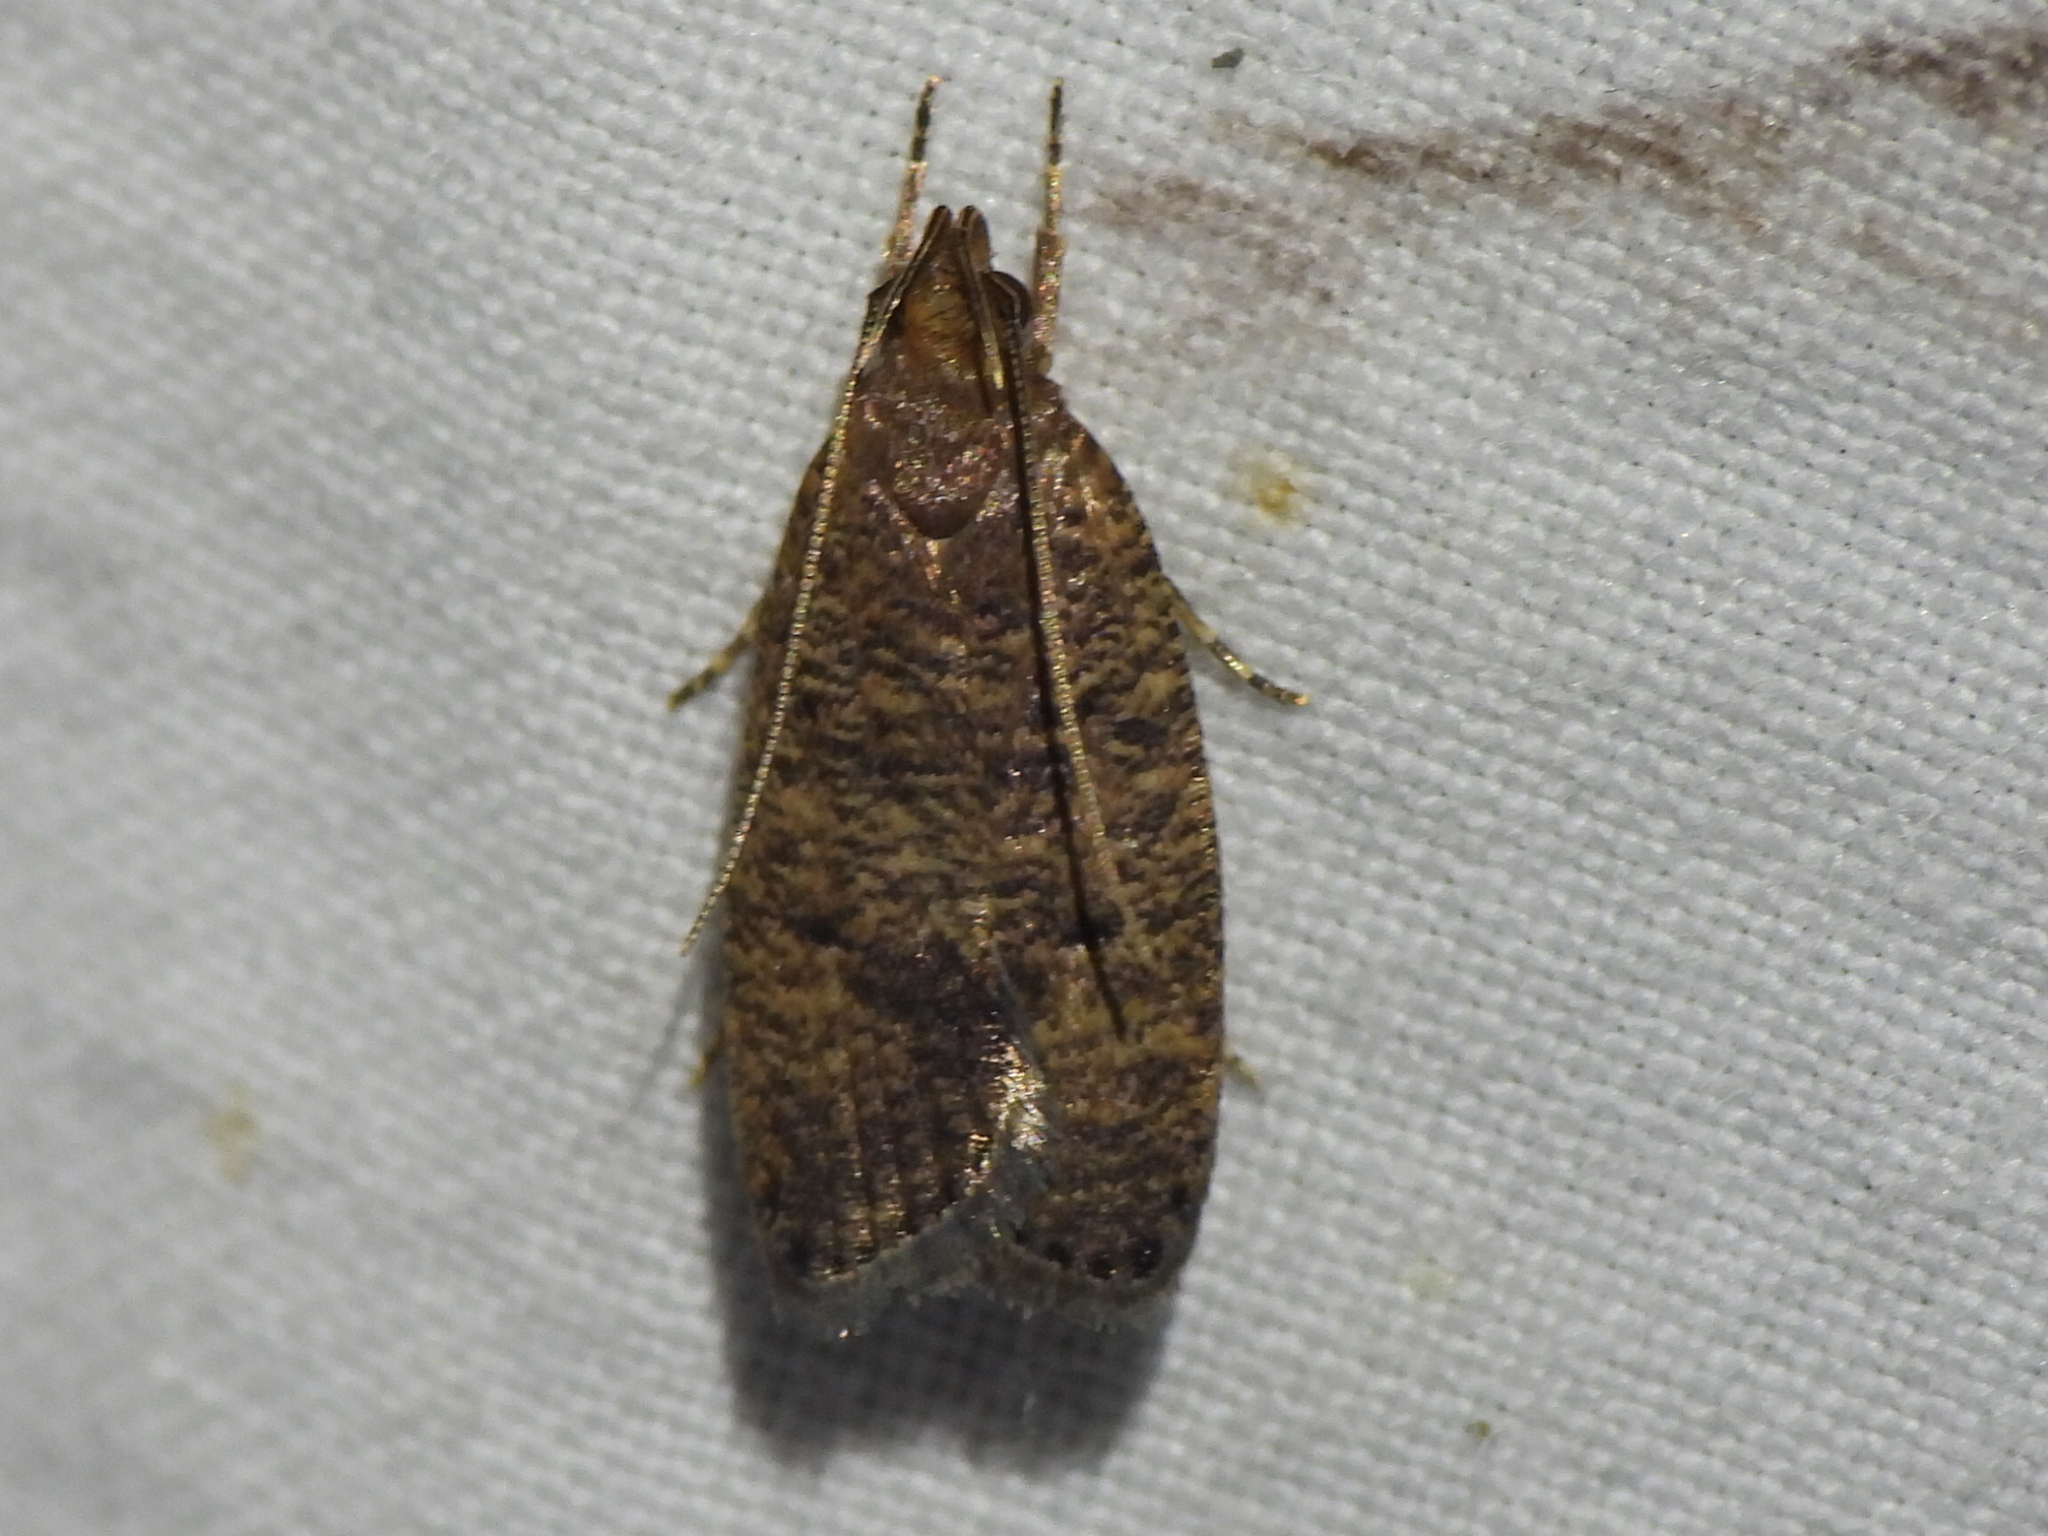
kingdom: Animalia
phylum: Arthropoda
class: Insecta
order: Lepidoptera
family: Depressariidae
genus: Psilocorsis
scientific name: Psilocorsis reflexella
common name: Dotted leaftier moth
